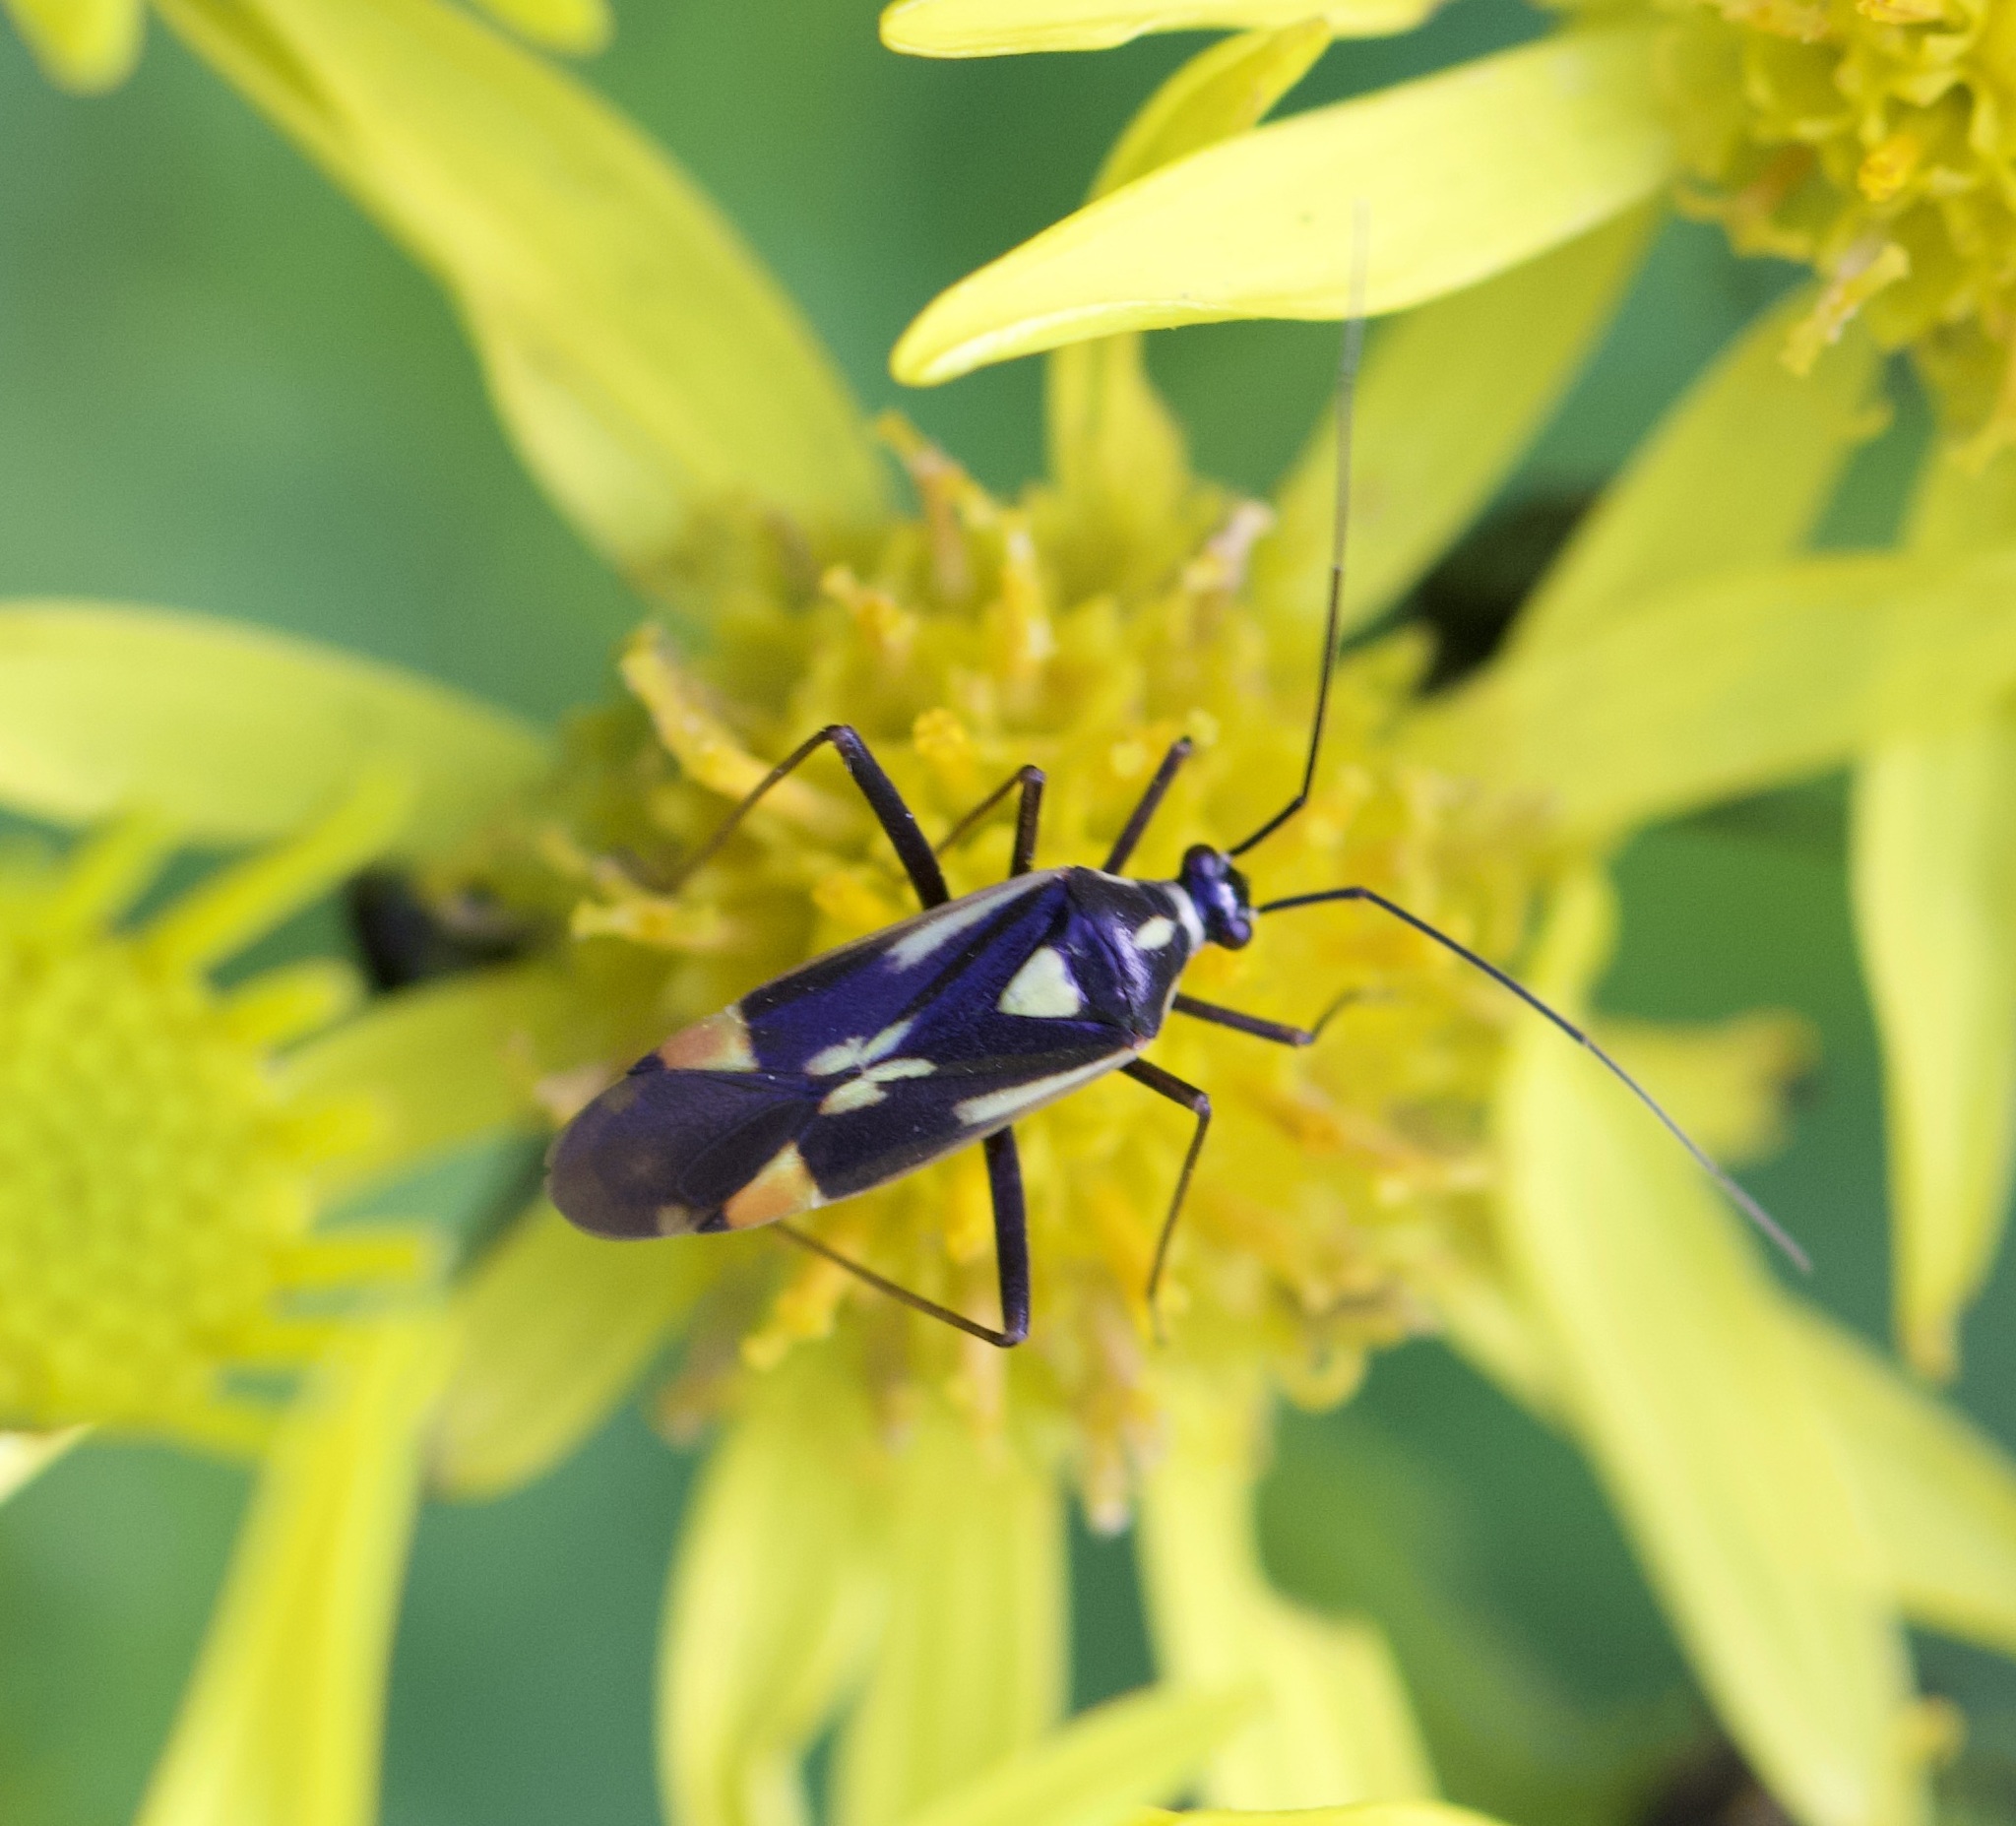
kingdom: Animalia
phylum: Arthropoda
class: Insecta
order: Hemiptera
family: Miridae
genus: Grypocoris
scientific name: Grypocoris stysi
